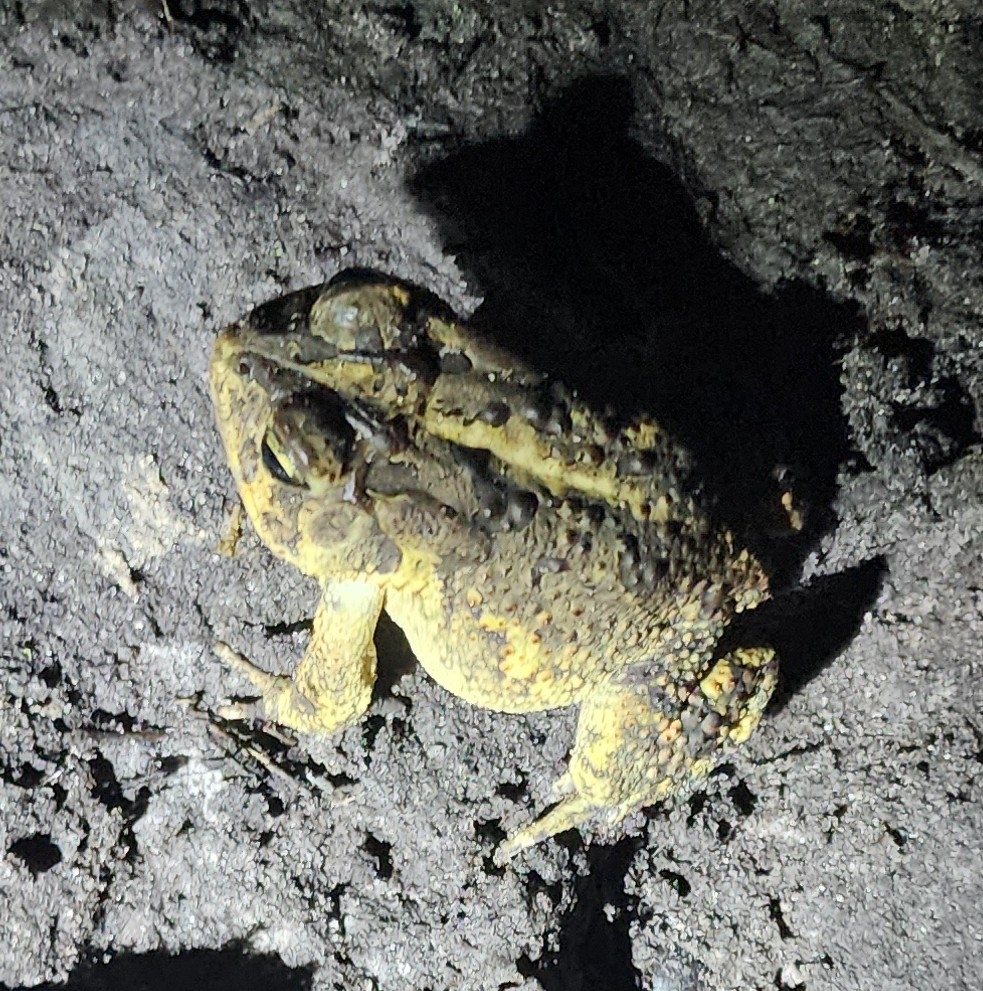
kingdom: Animalia
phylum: Chordata
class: Amphibia
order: Anura
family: Bufonidae
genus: Anaxyrus
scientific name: Anaxyrus terrestris
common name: Southern toad
